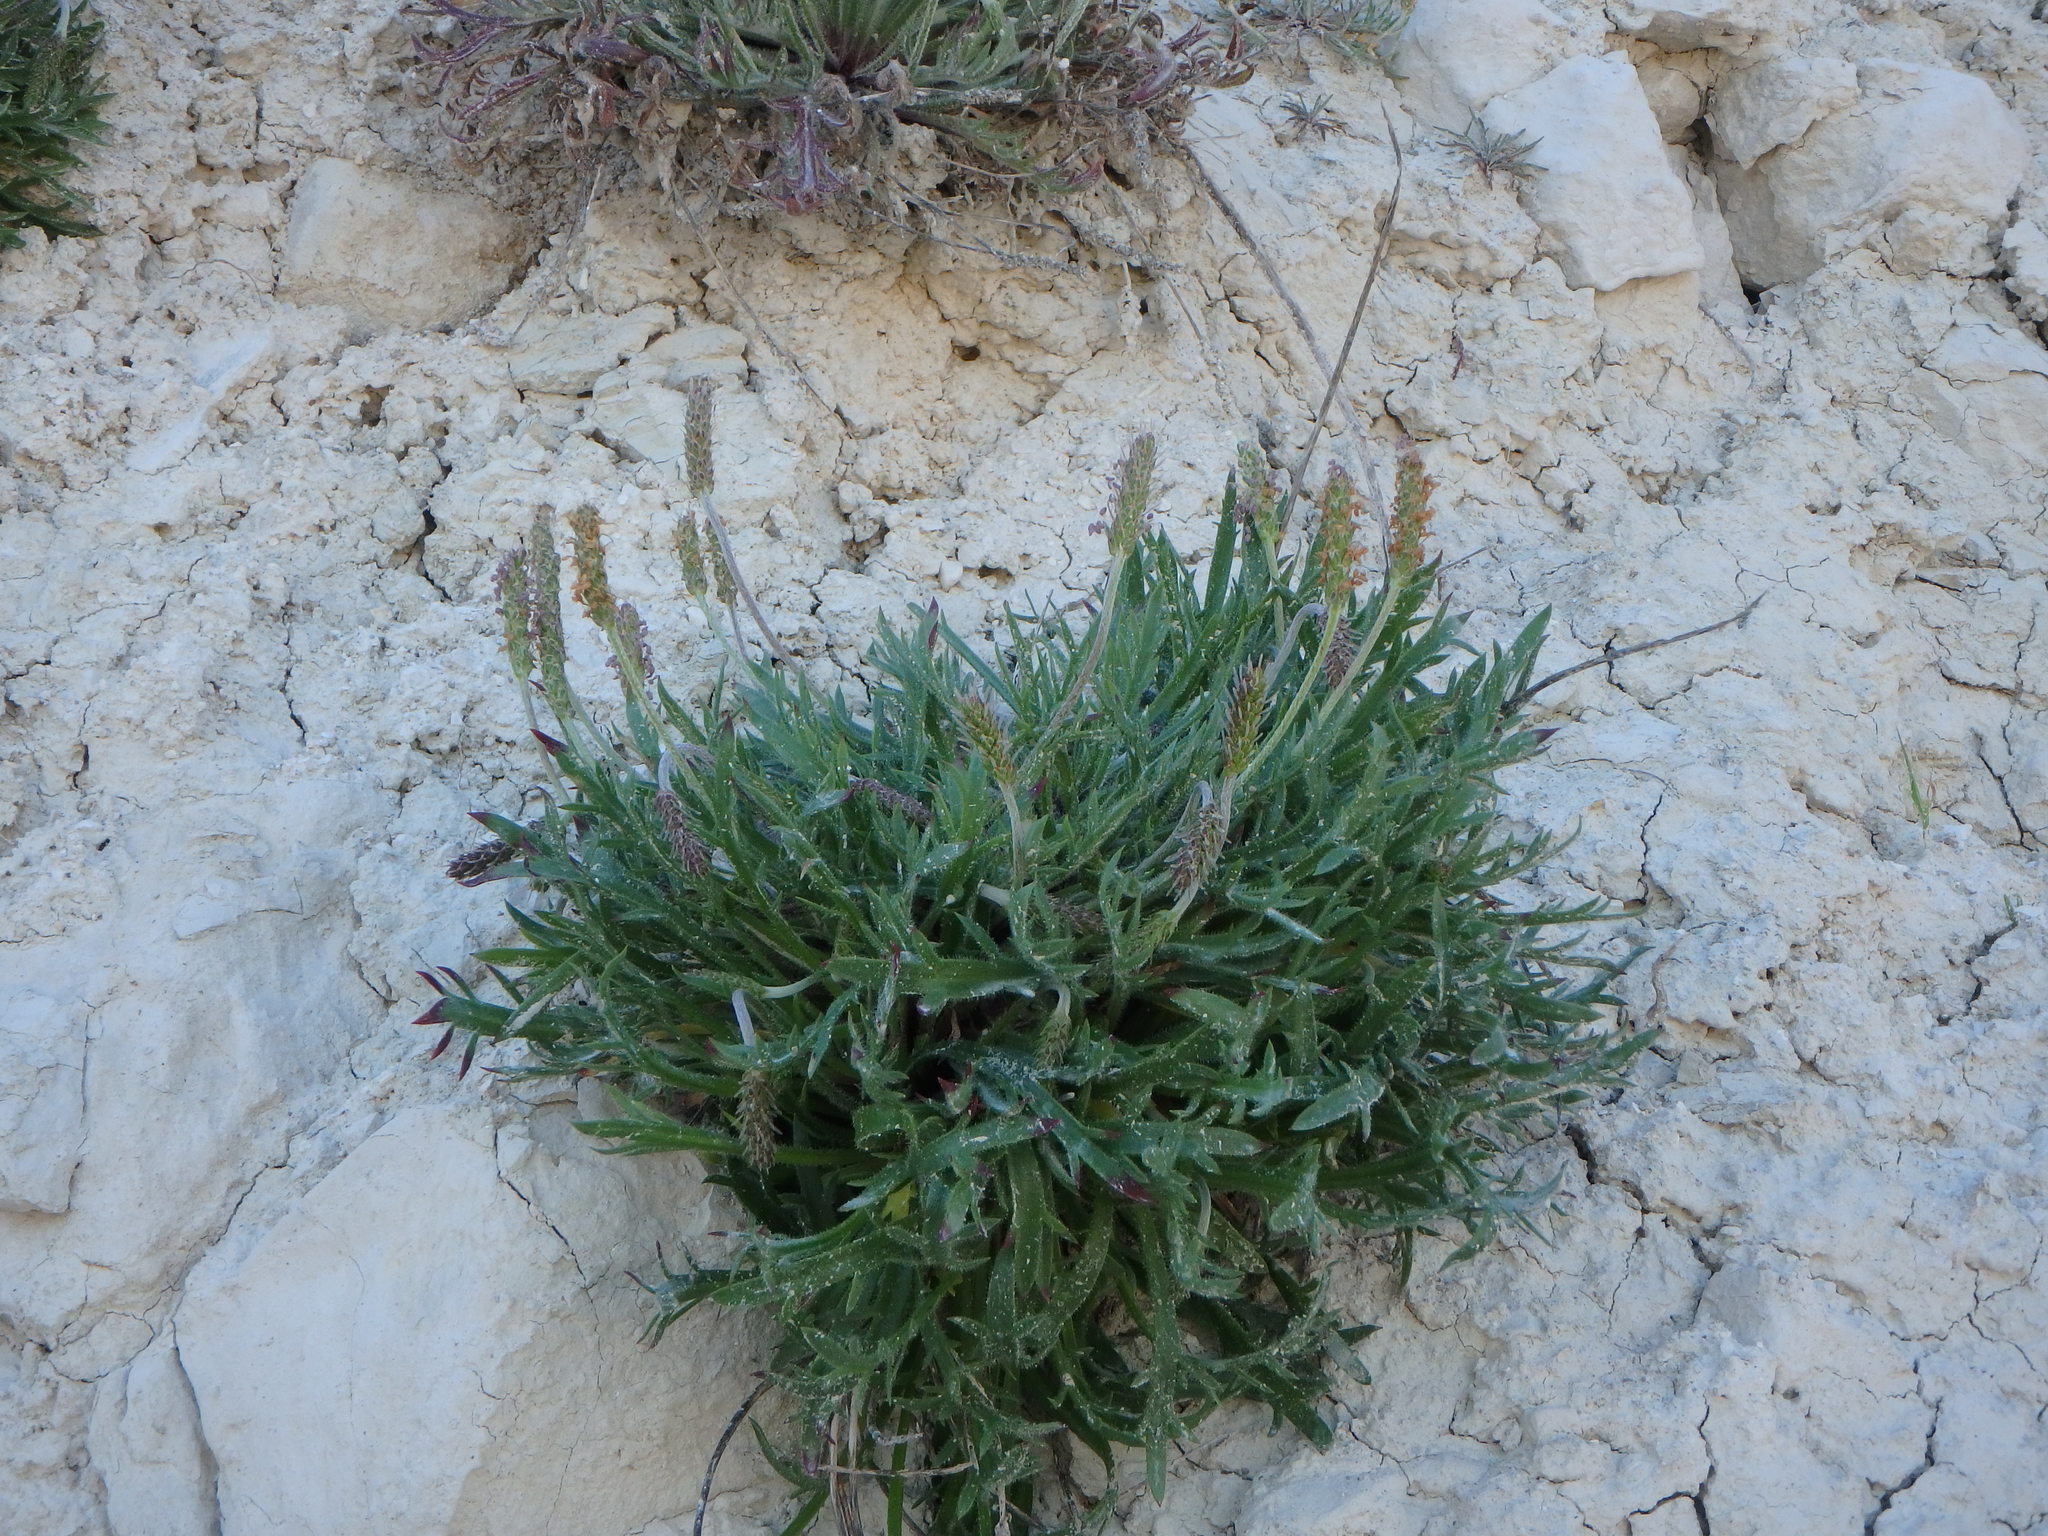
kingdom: Plantae
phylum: Tracheophyta
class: Magnoliopsida
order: Lamiales
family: Plantaginaceae
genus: Plantago
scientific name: Plantago coronopus
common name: Buck's-horn plantain
